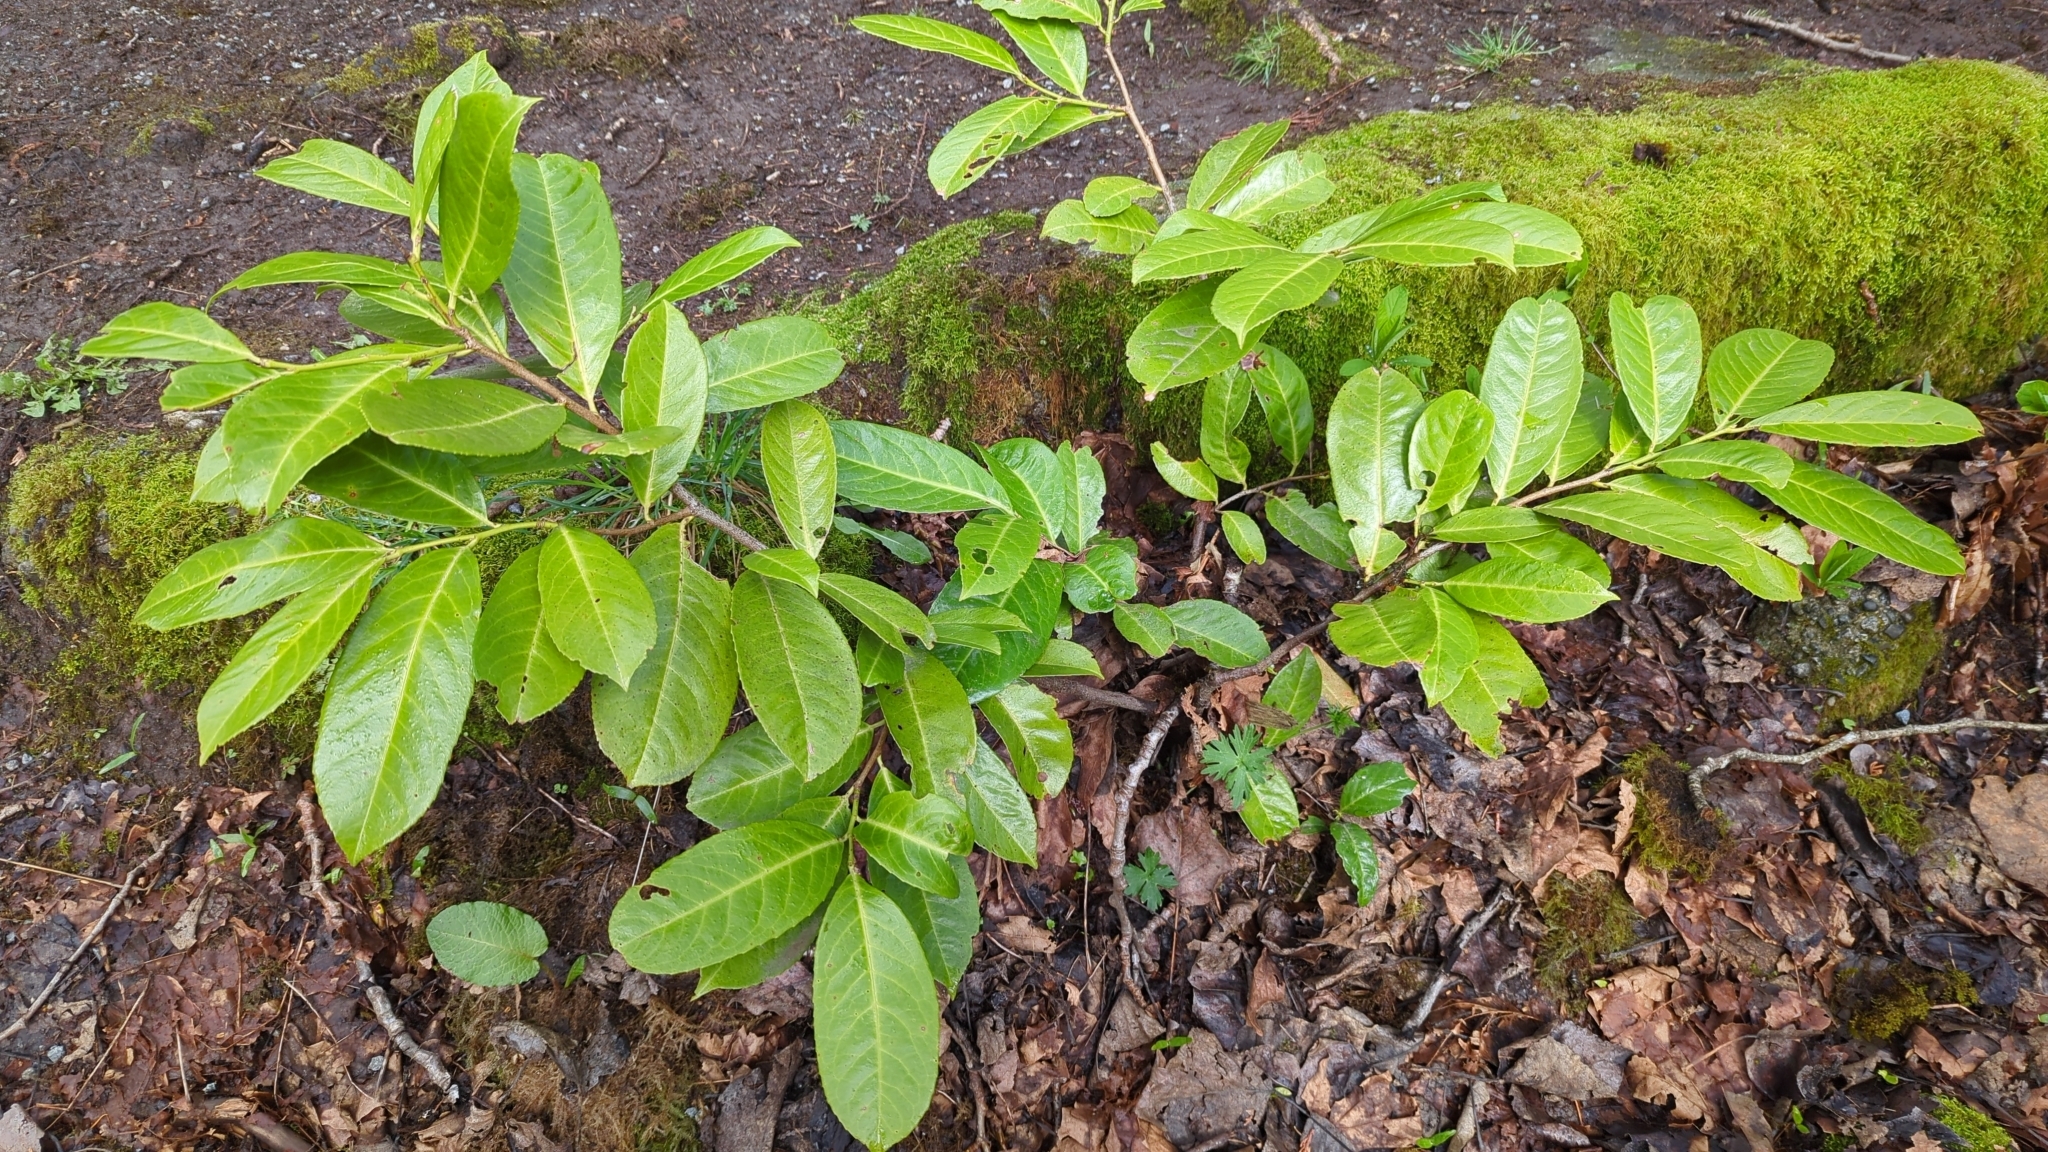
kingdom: Plantae
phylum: Tracheophyta
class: Magnoliopsida
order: Rosales
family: Rosaceae
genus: Prunus
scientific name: Prunus laurocerasus
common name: Cherry laurel
